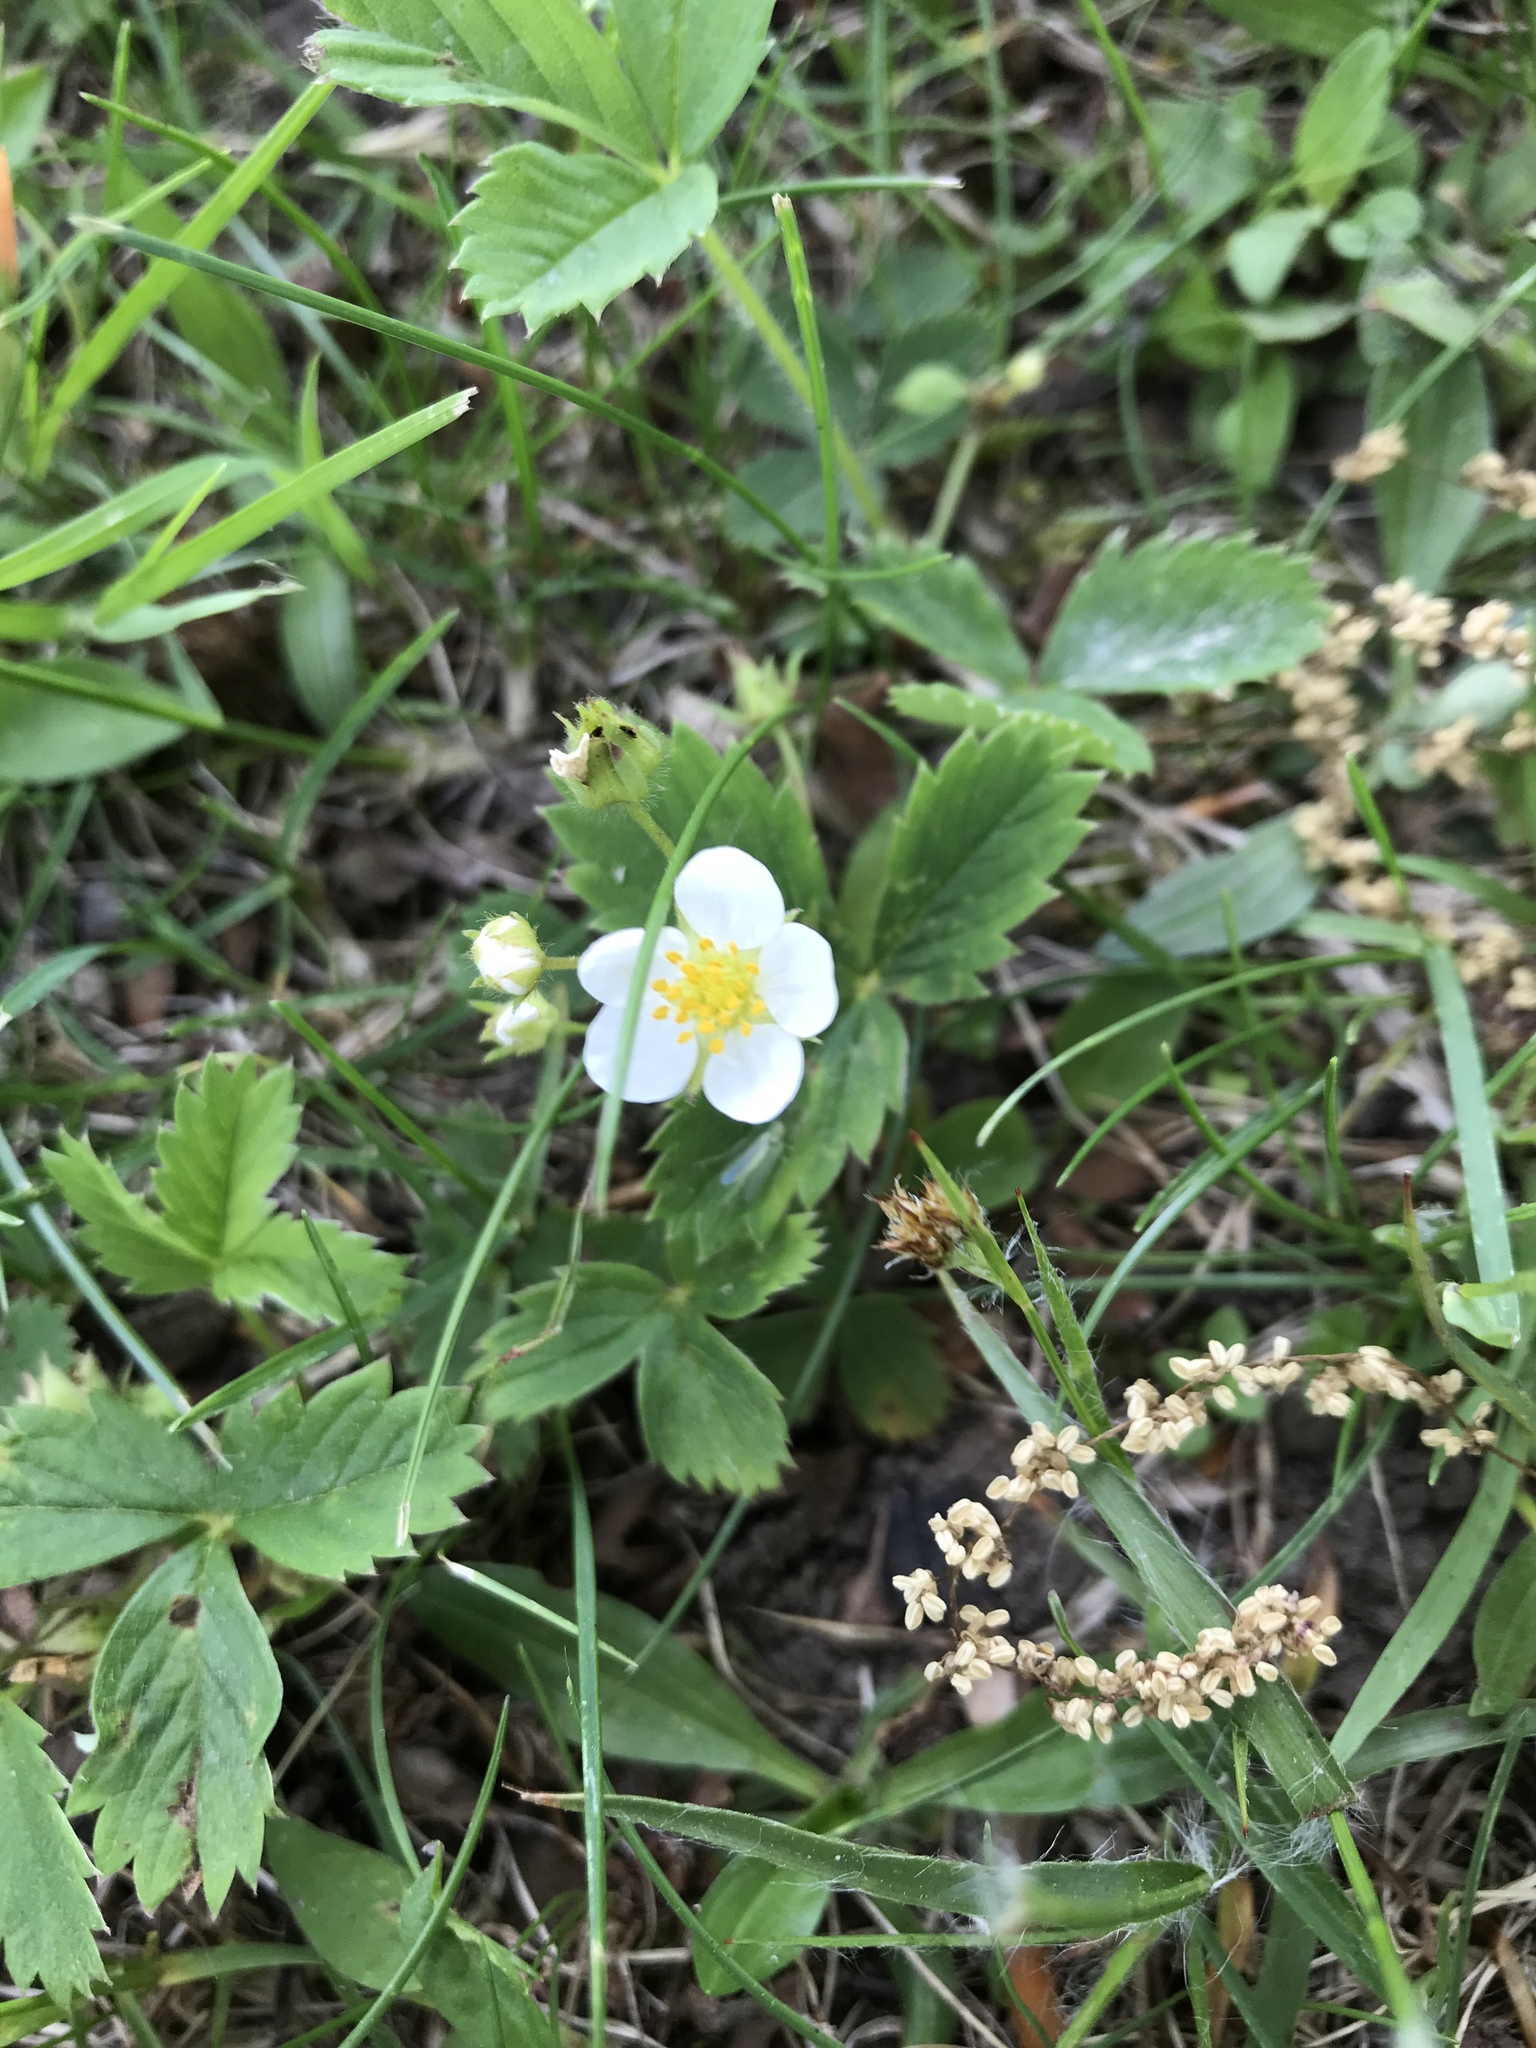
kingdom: Plantae
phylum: Tracheophyta
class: Magnoliopsida
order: Rosales
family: Rosaceae
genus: Fragaria
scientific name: Fragaria virginiana
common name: Thickleaved wild strawberry
